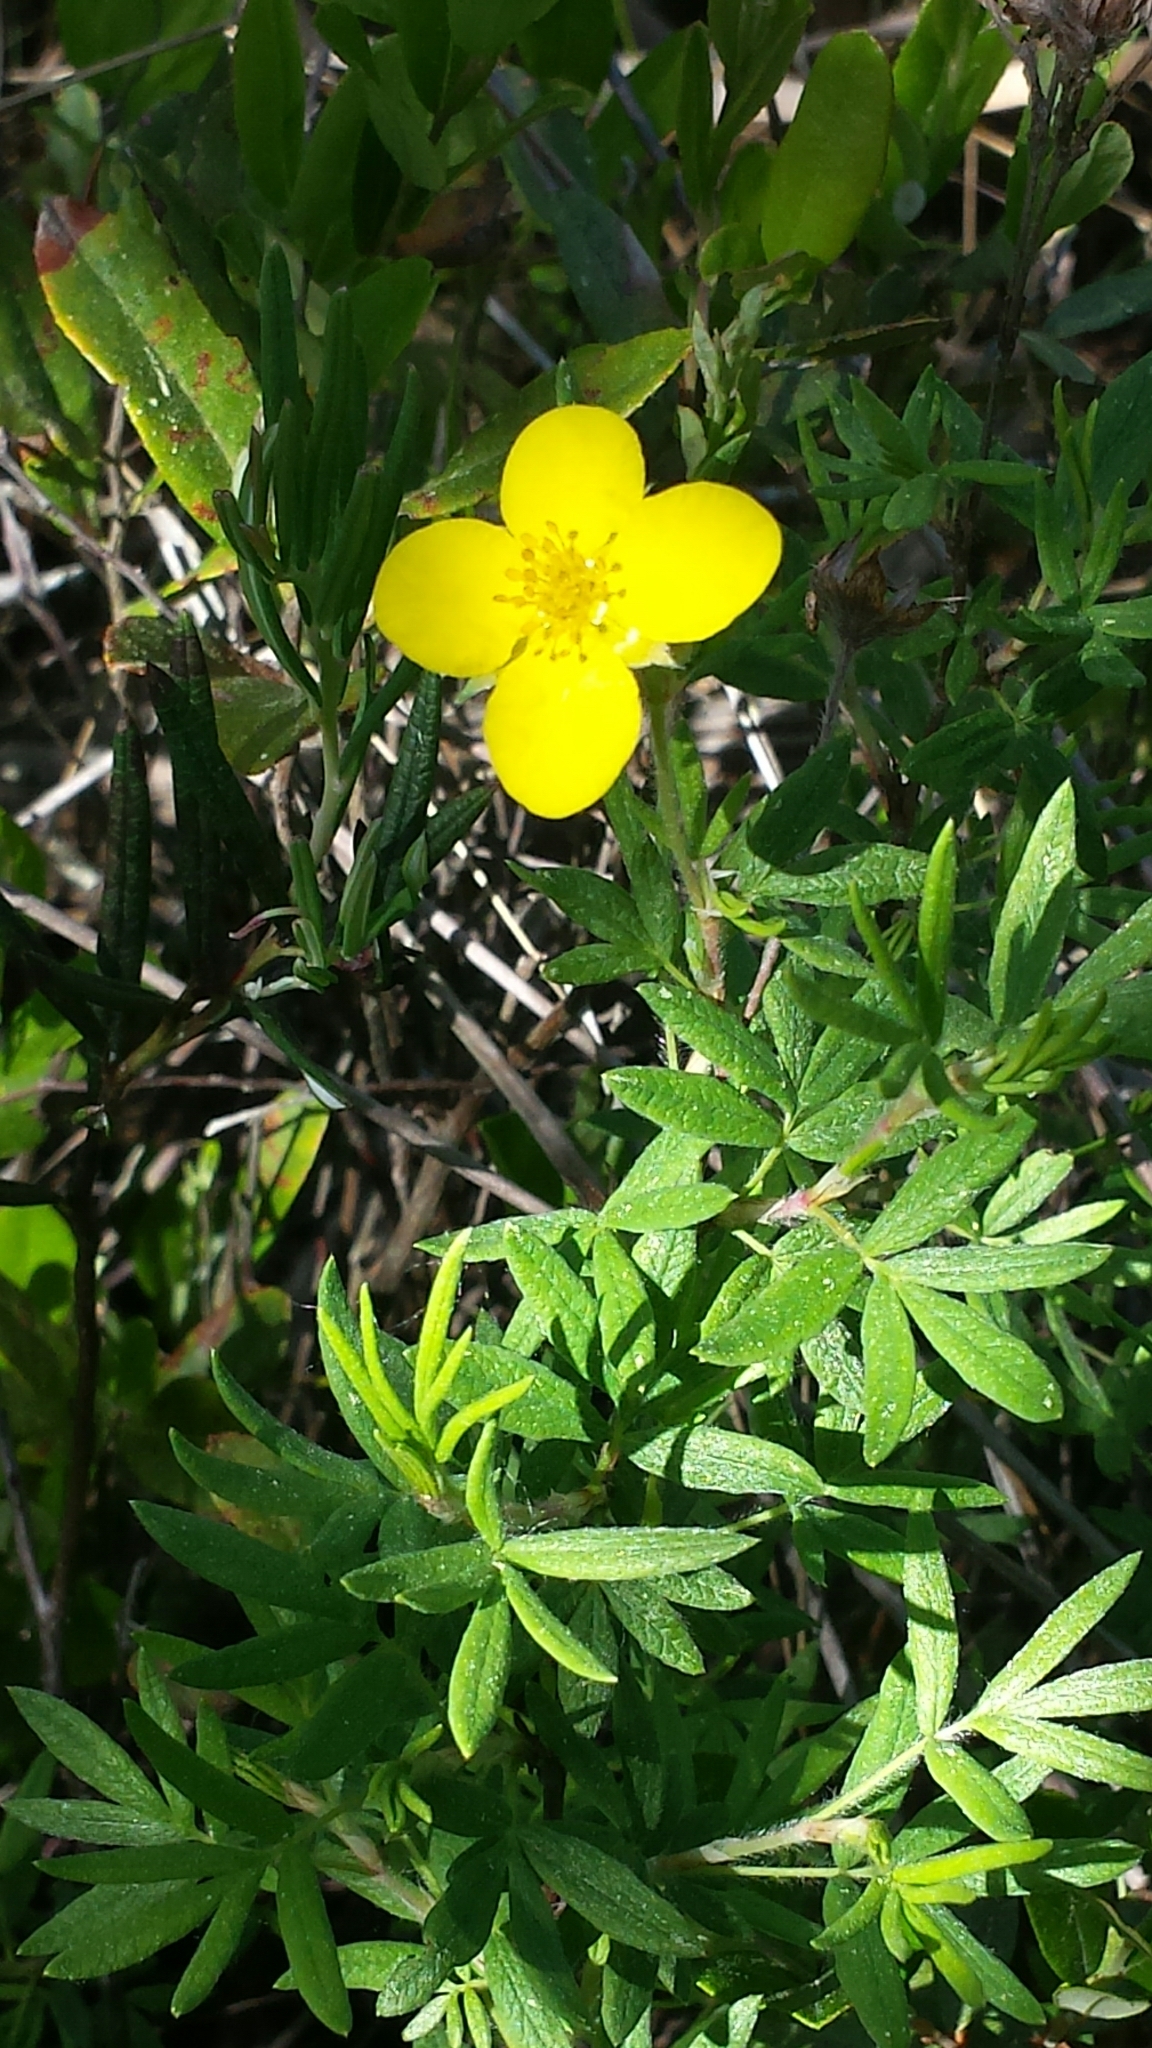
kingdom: Plantae
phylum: Tracheophyta
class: Magnoliopsida
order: Rosales
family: Rosaceae
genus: Dasiphora
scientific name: Dasiphora fruticosa
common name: Shrubby cinquefoil
